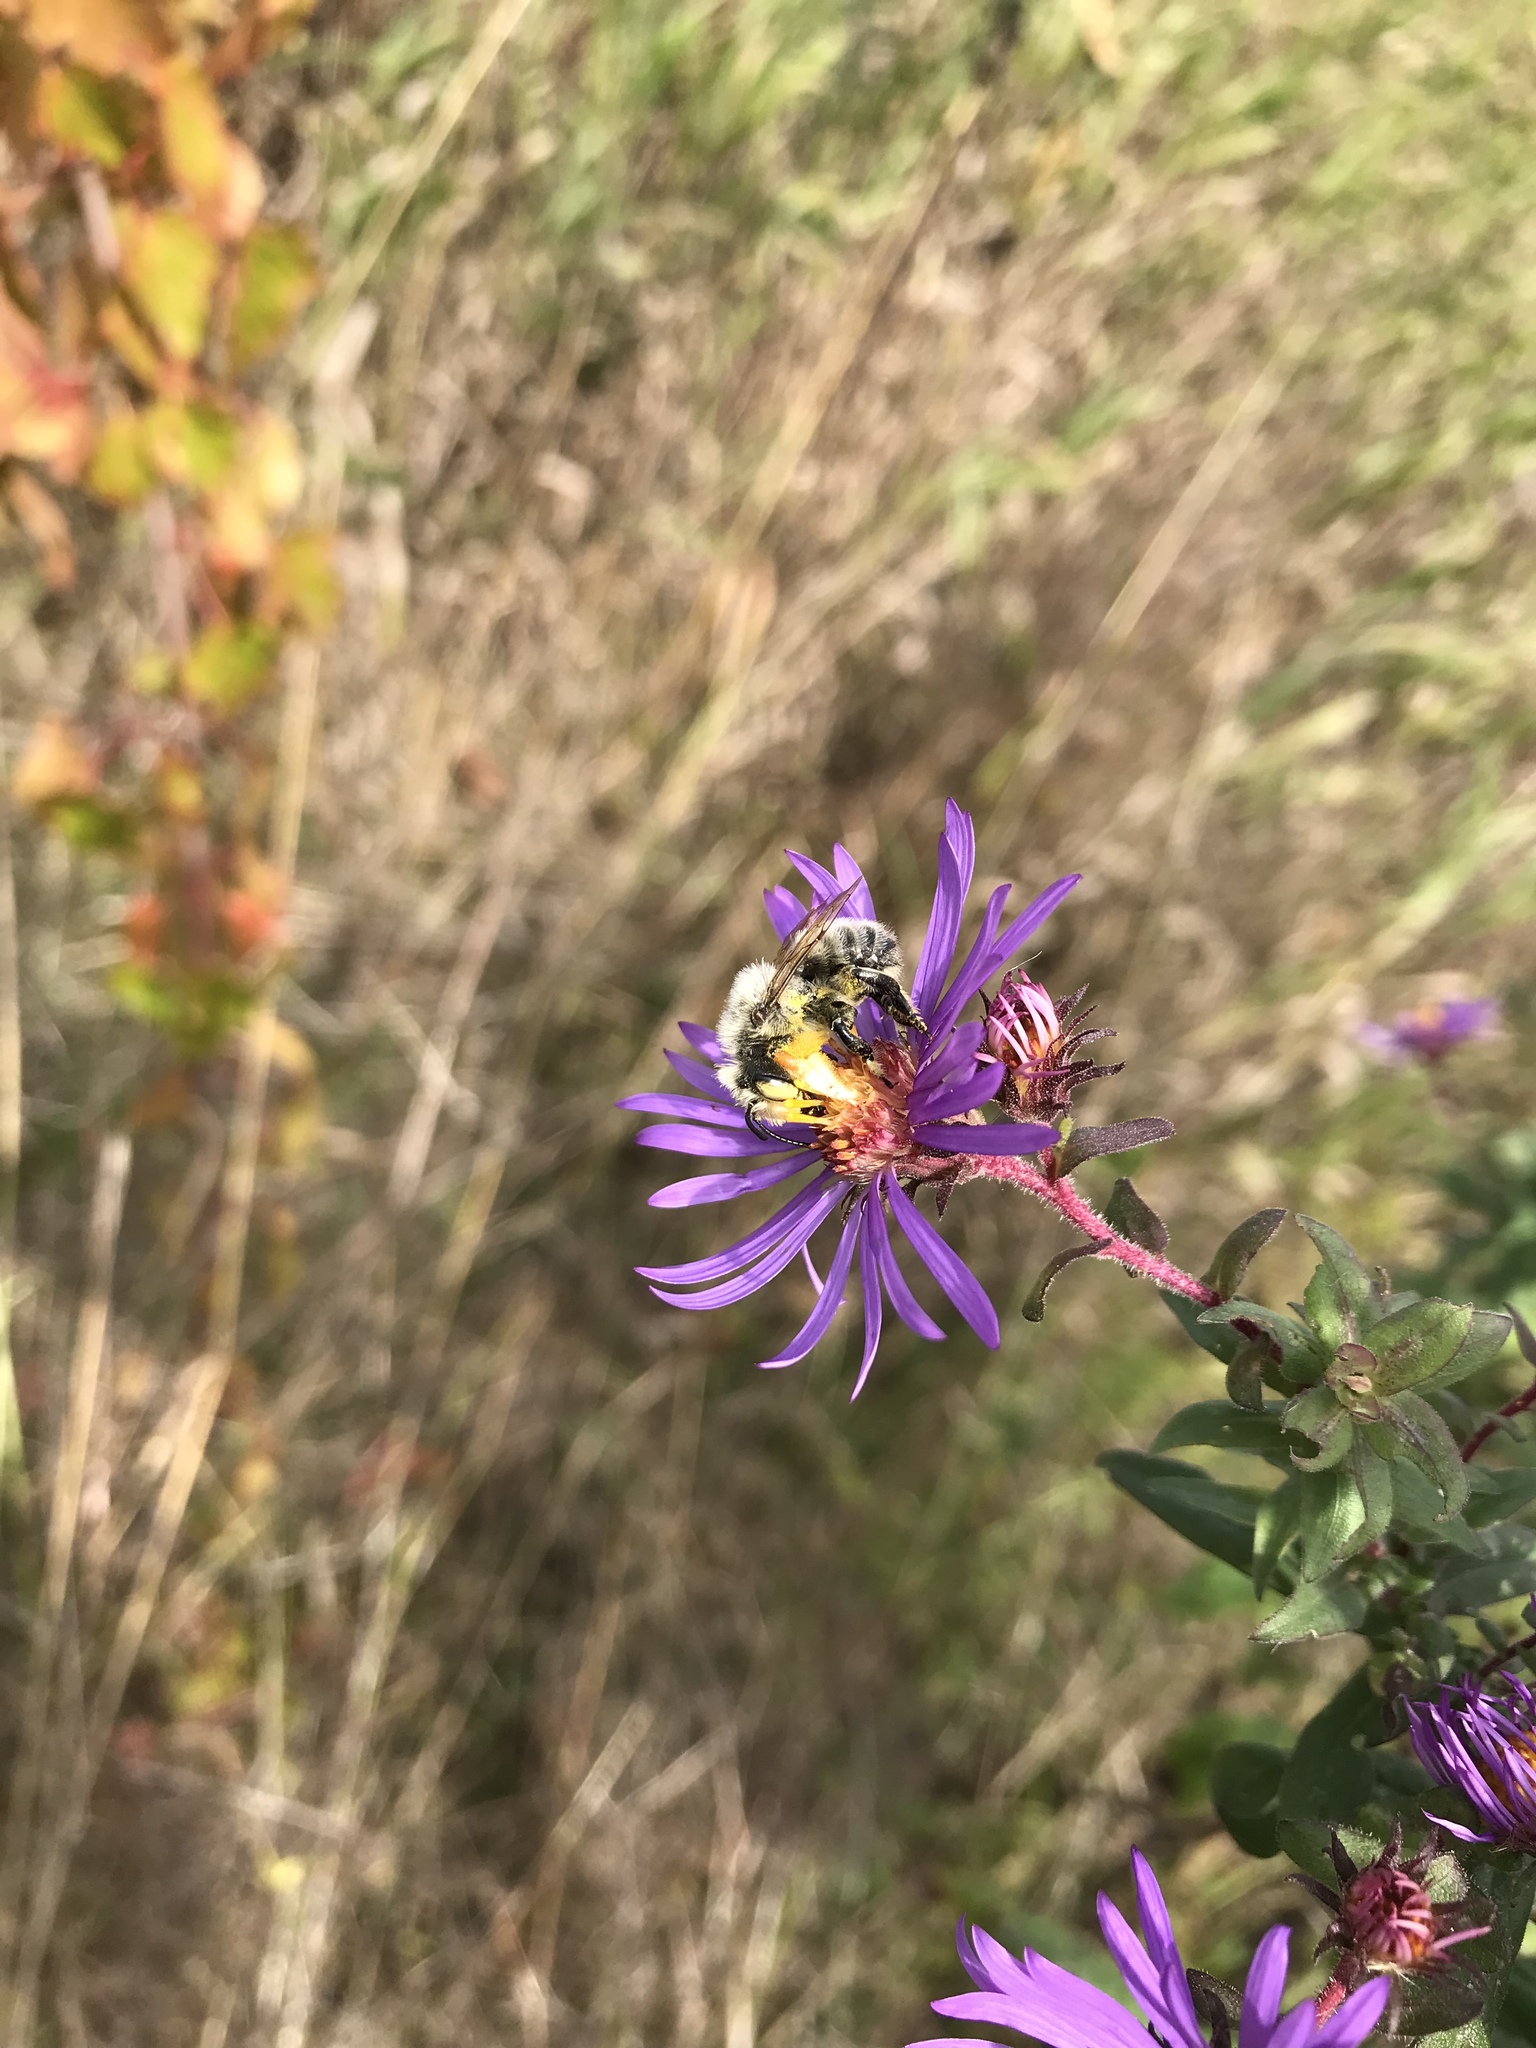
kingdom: Animalia
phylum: Arthropoda
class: Insecta
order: Hymenoptera
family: Megachilidae
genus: Megachile
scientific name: Megachile latimanus
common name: Leafcutting bee
